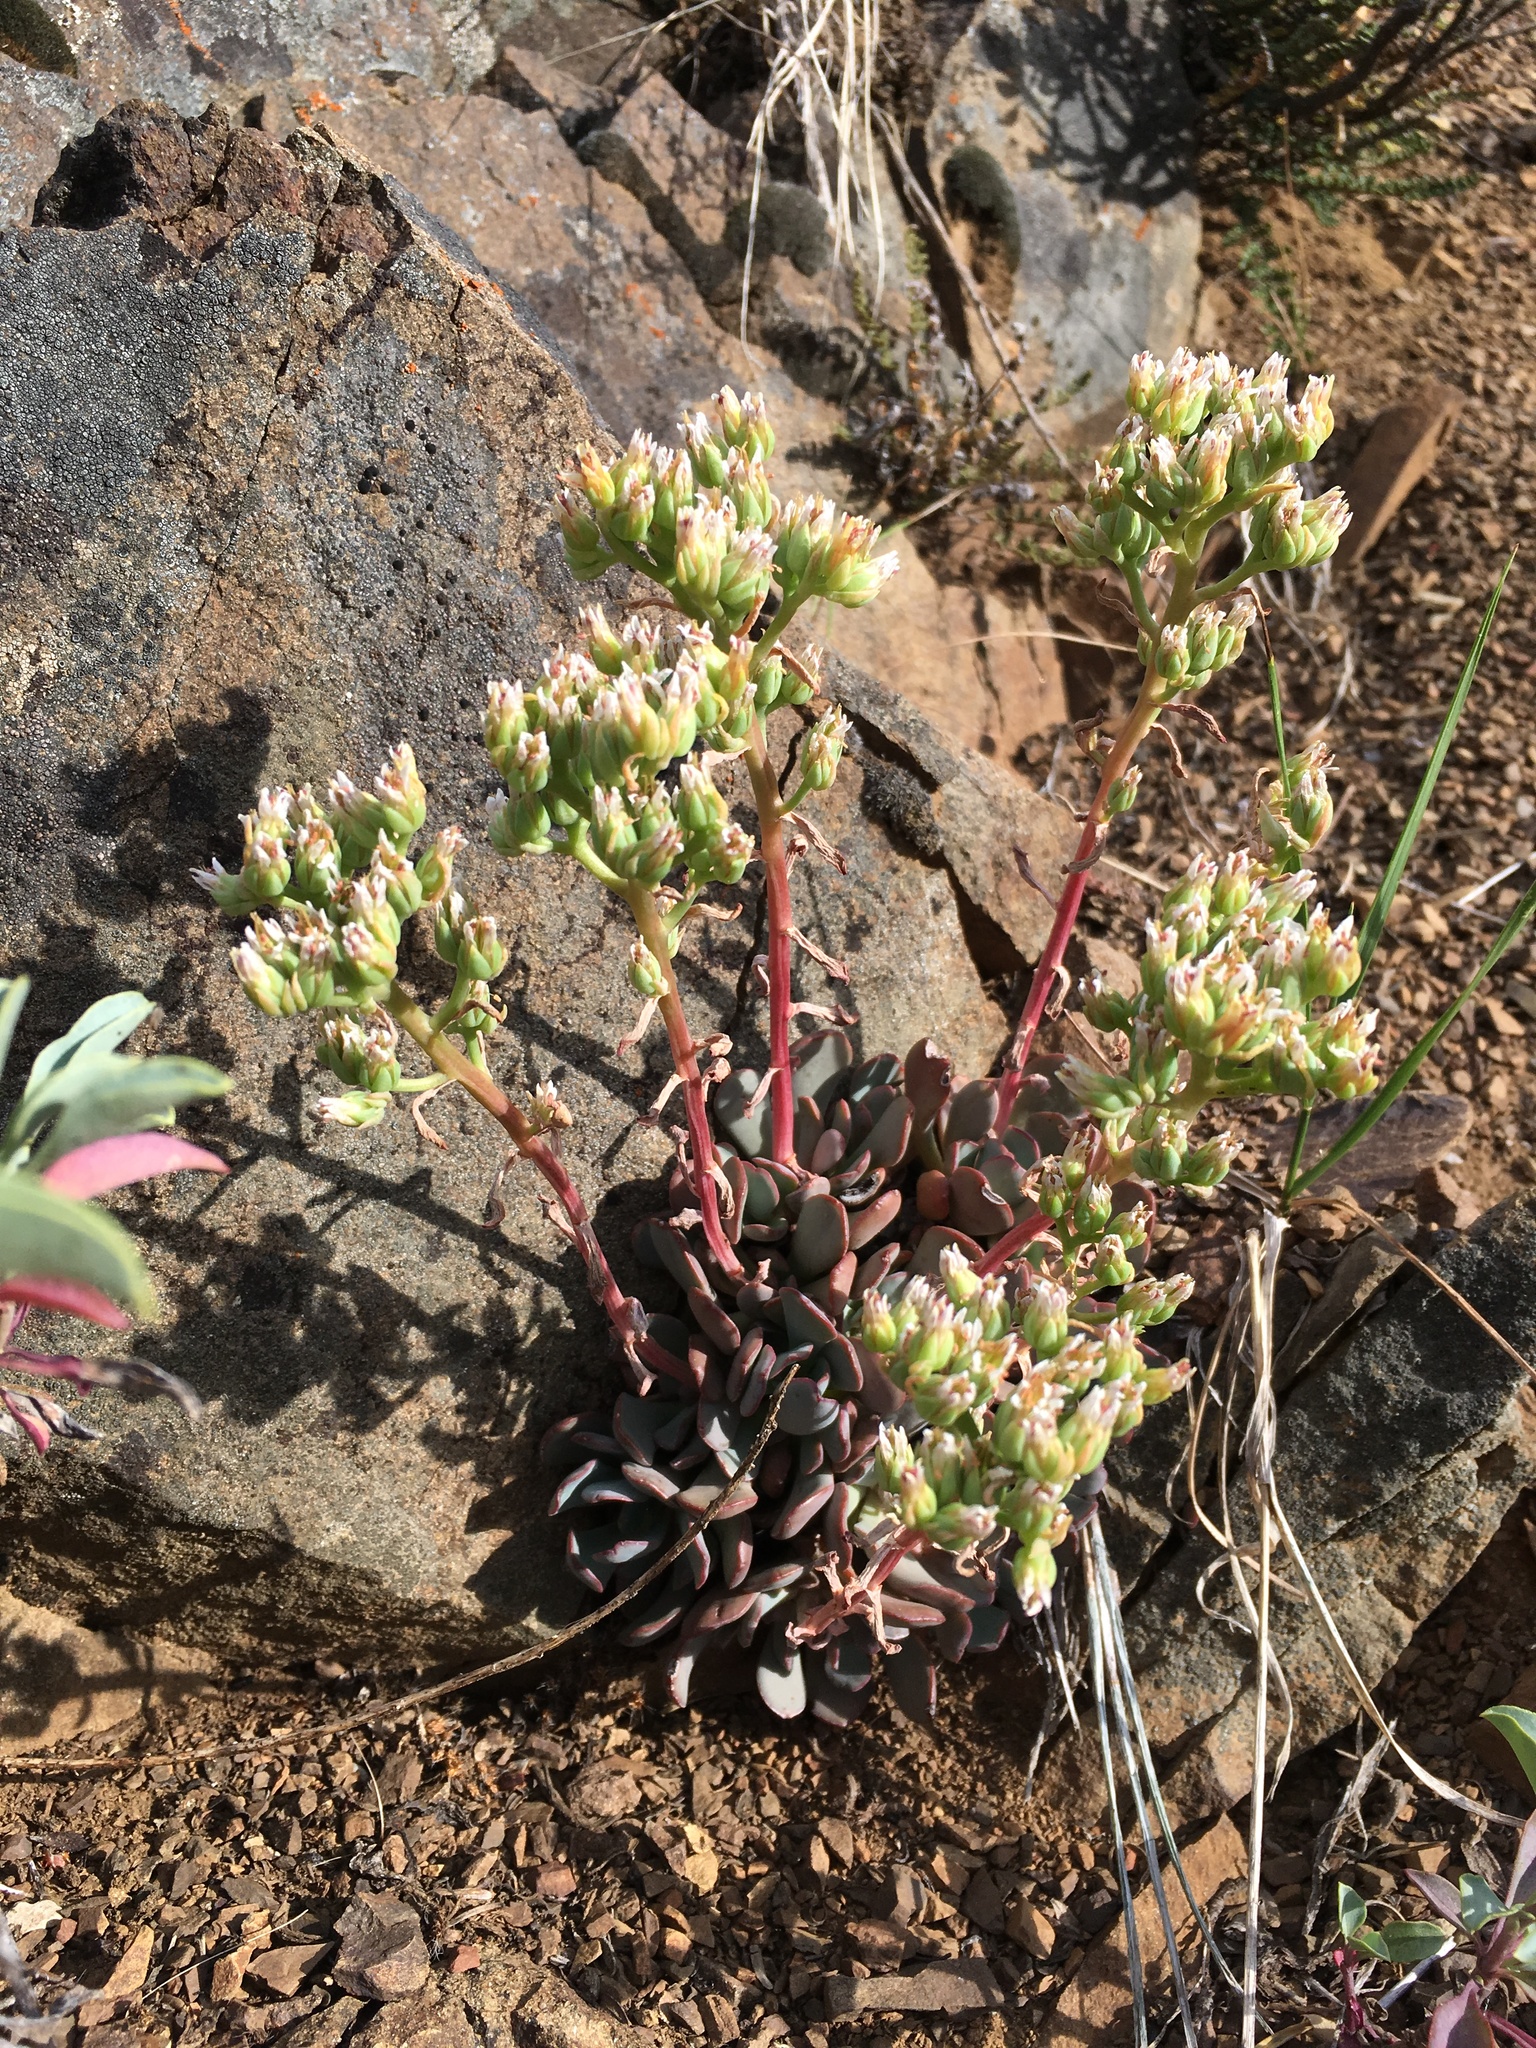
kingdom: Plantae
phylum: Tracheophyta
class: Magnoliopsida
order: Saxifragales
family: Crassulaceae
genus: Sedum
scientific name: Sedum paradisum
